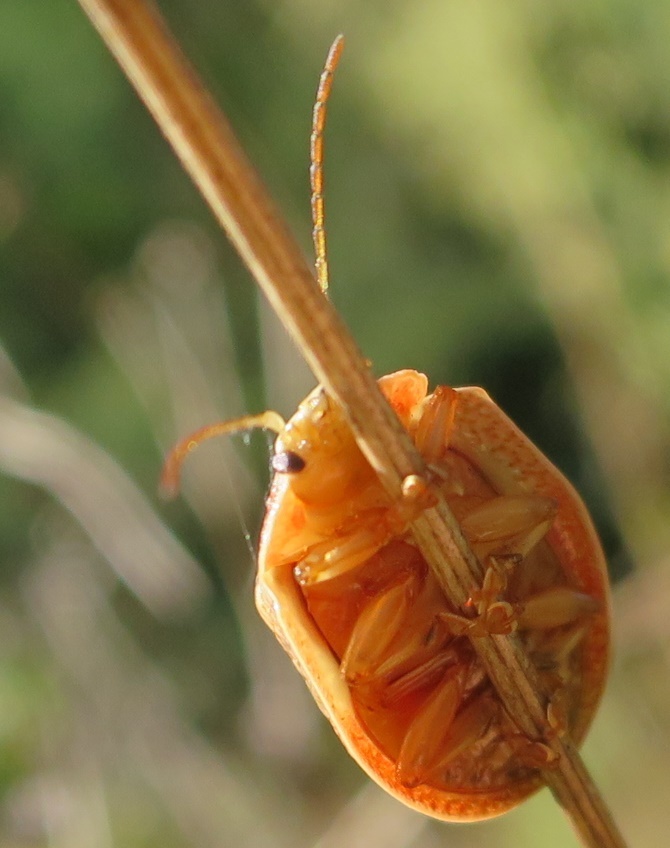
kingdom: Animalia
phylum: Arthropoda
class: Insecta
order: Coleoptera
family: Chrysomelidae
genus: Paropsis
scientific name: Paropsis charybdis
